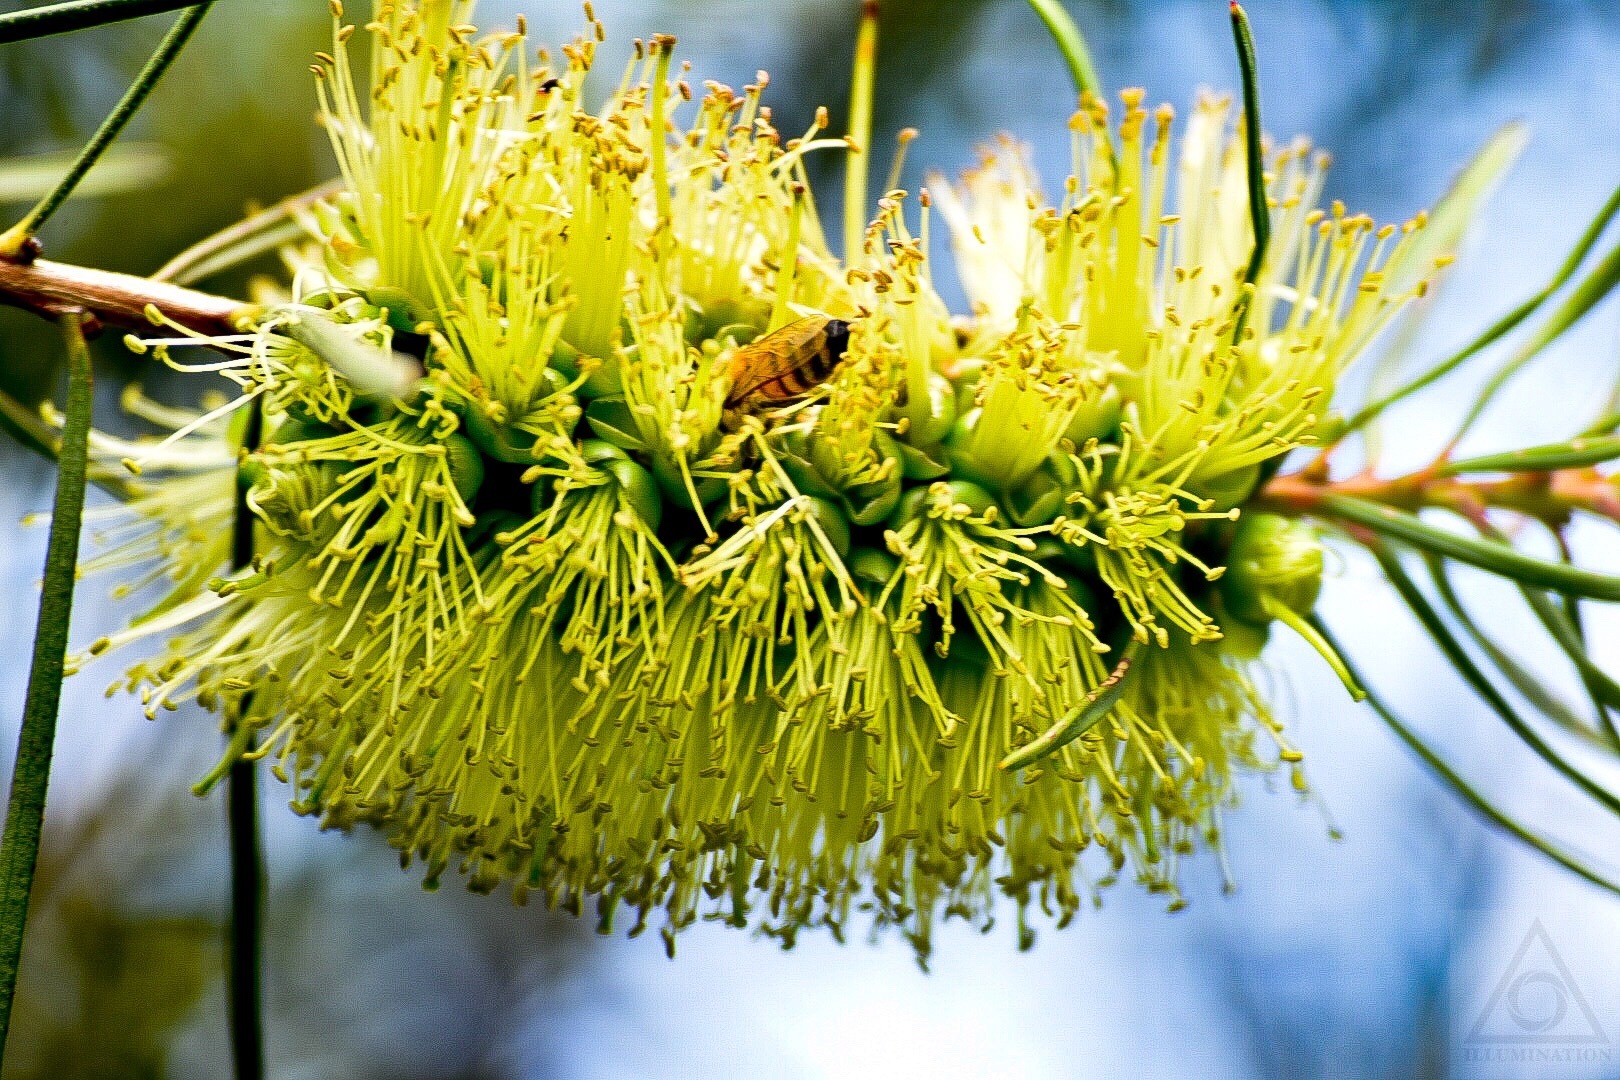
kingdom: Animalia
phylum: Arthropoda
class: Insecta
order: Hymenoptera
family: Apidae
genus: Apis
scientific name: Apis mellifera
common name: Honey bee
